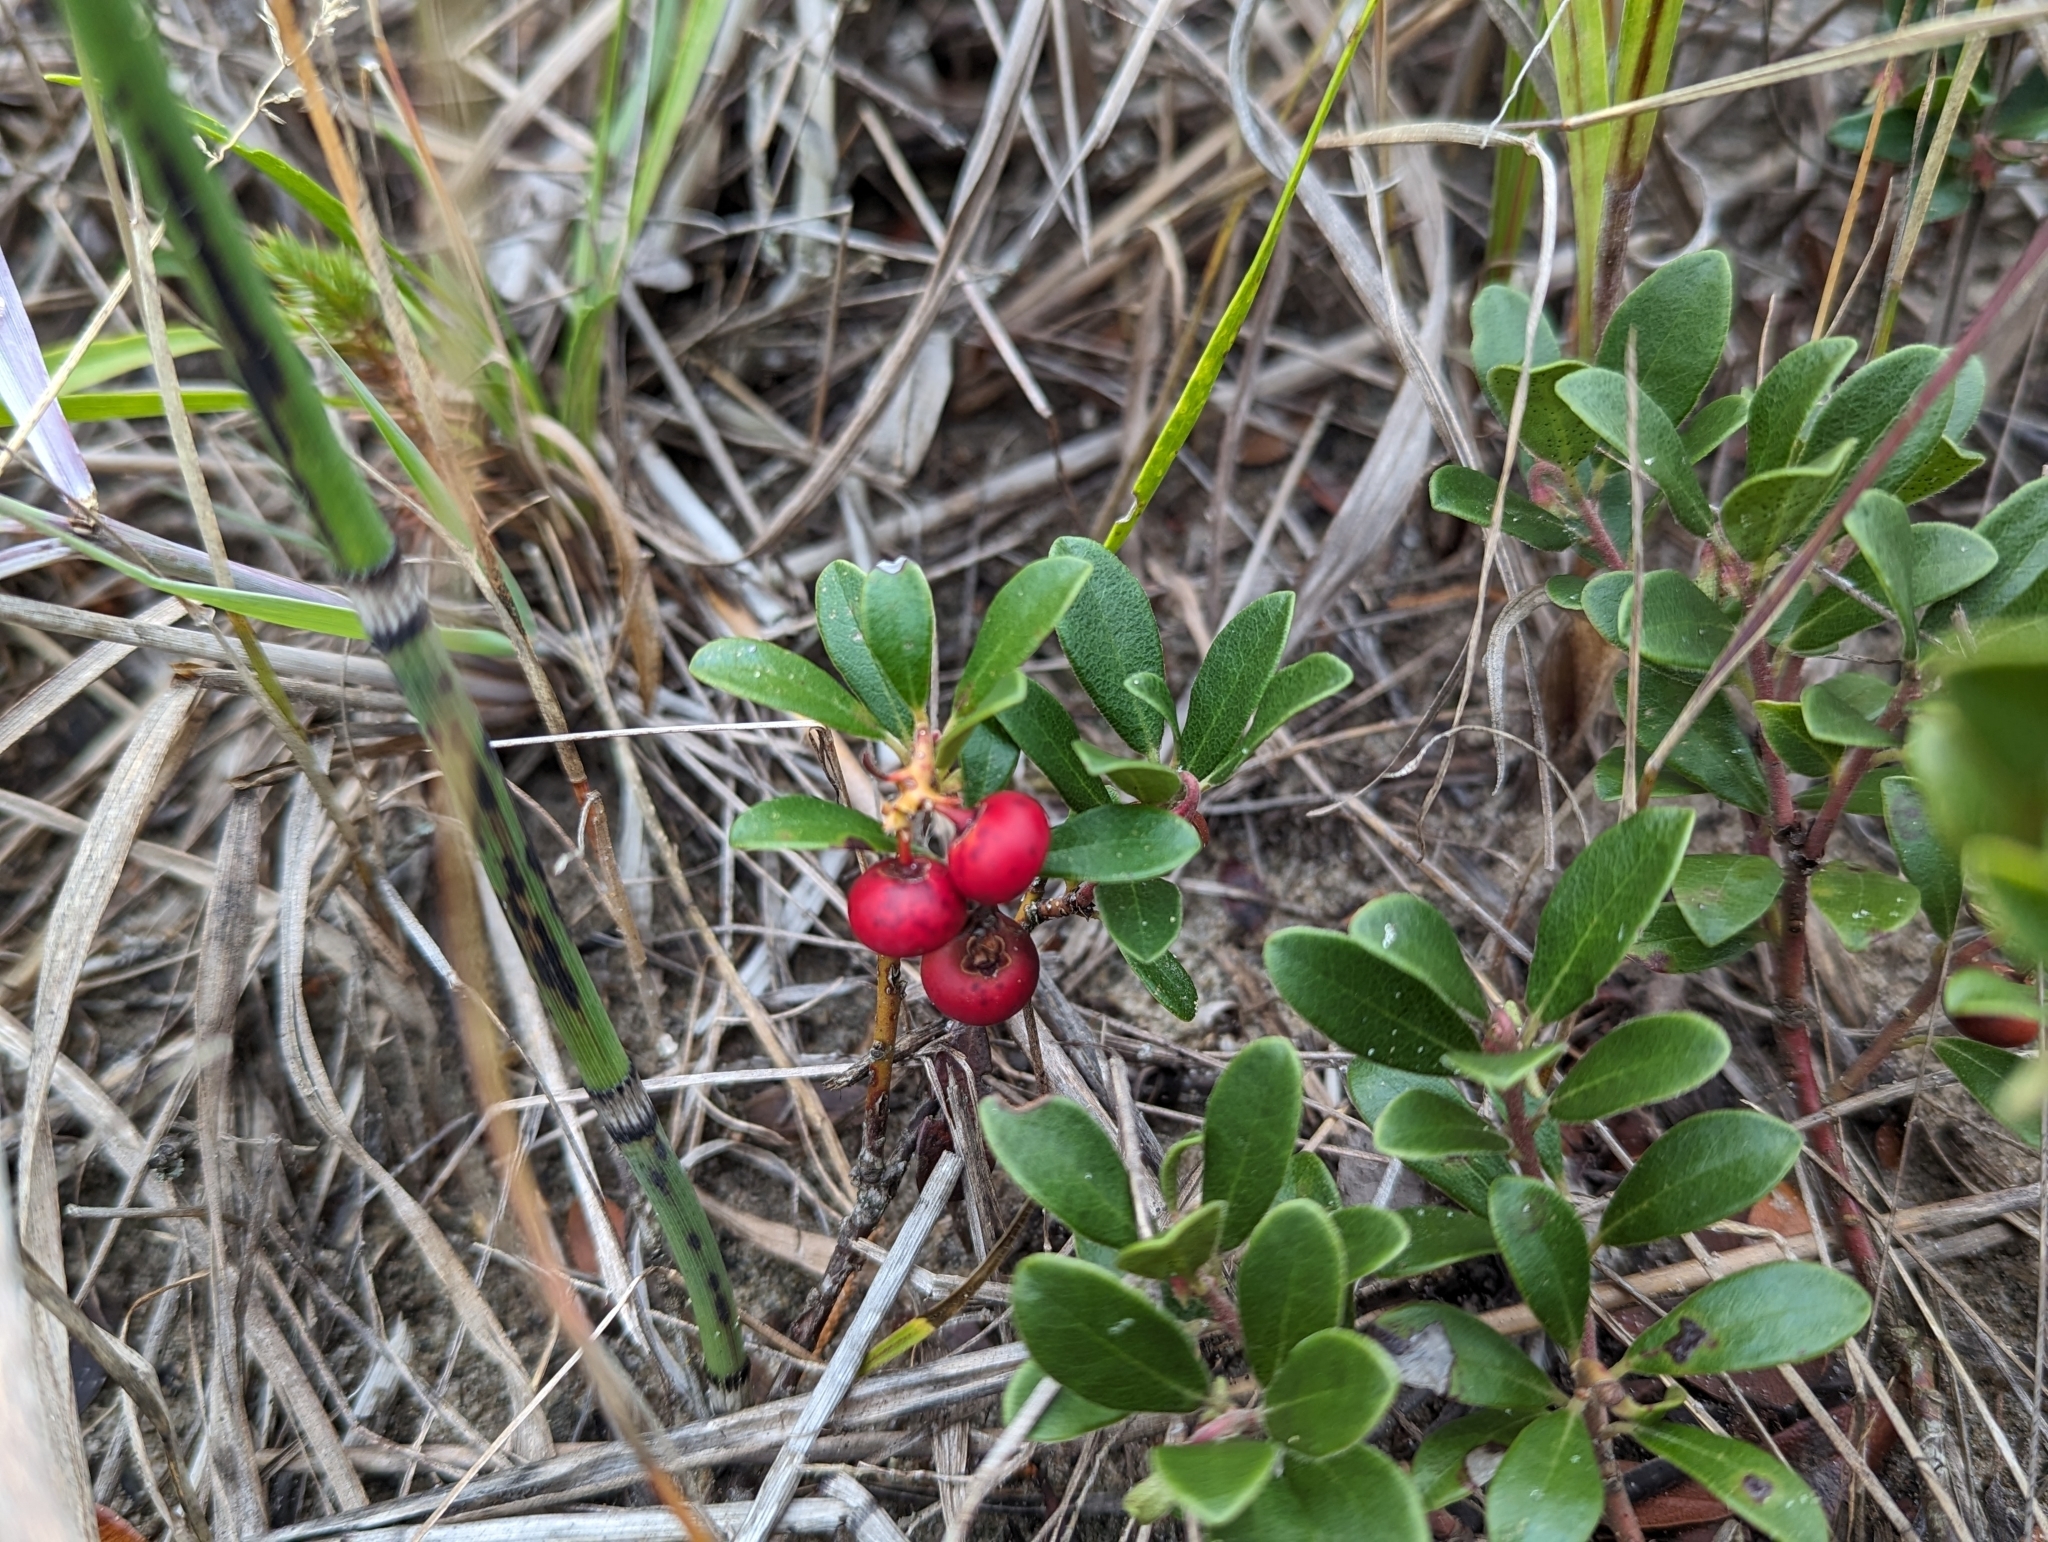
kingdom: Plantae
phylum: Tracheophyta
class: Magnoliopsida
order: Ericales
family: Ericaceae
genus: Arctostaphylos
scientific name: Arctostaphylos uva-ursi
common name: Bearberry
